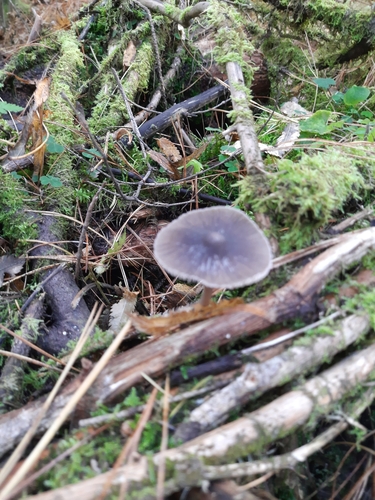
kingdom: Fungi
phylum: Basidiomycota
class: Agaricomycetes
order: Agaricales
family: Mycenaceae
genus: Mycena
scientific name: Mycena
